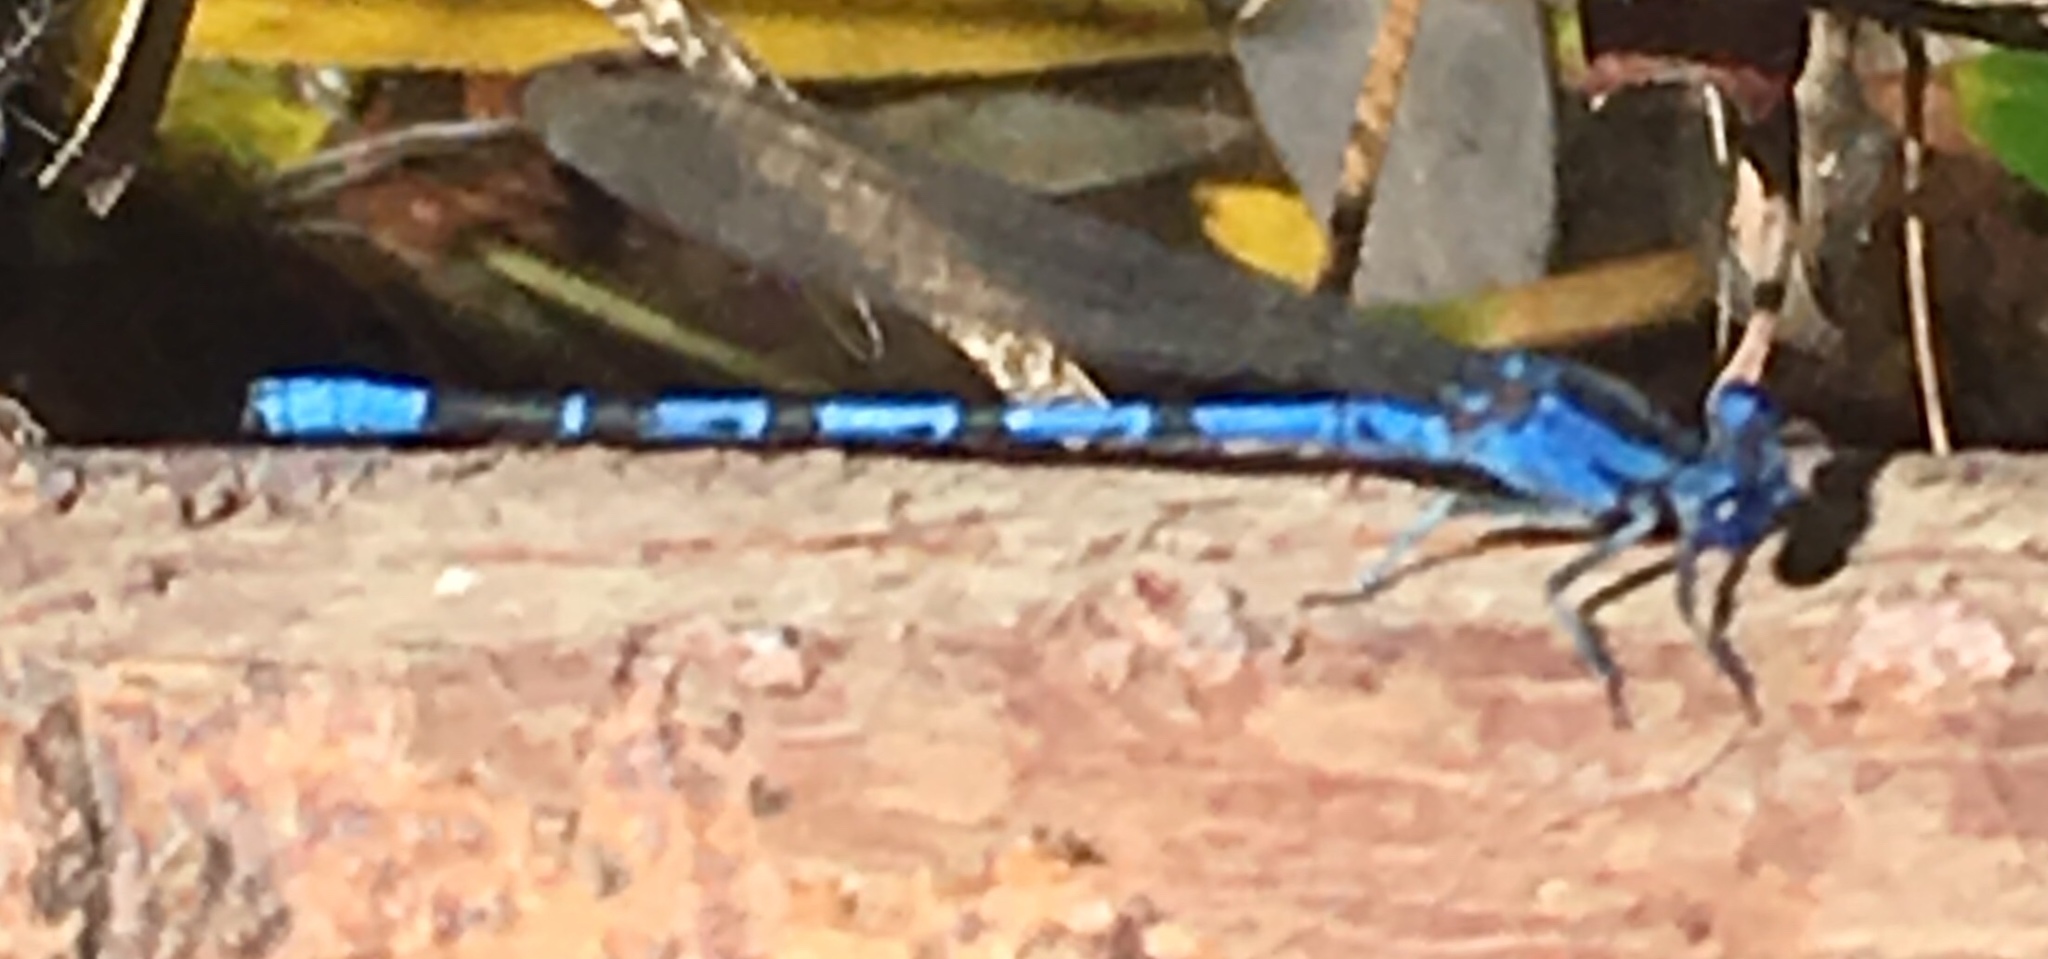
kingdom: Animalia
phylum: Arthropoda
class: Insecta
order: Odonata
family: Coenagrionidae
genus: Argia
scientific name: Argia vivida
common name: Vivid dancer
